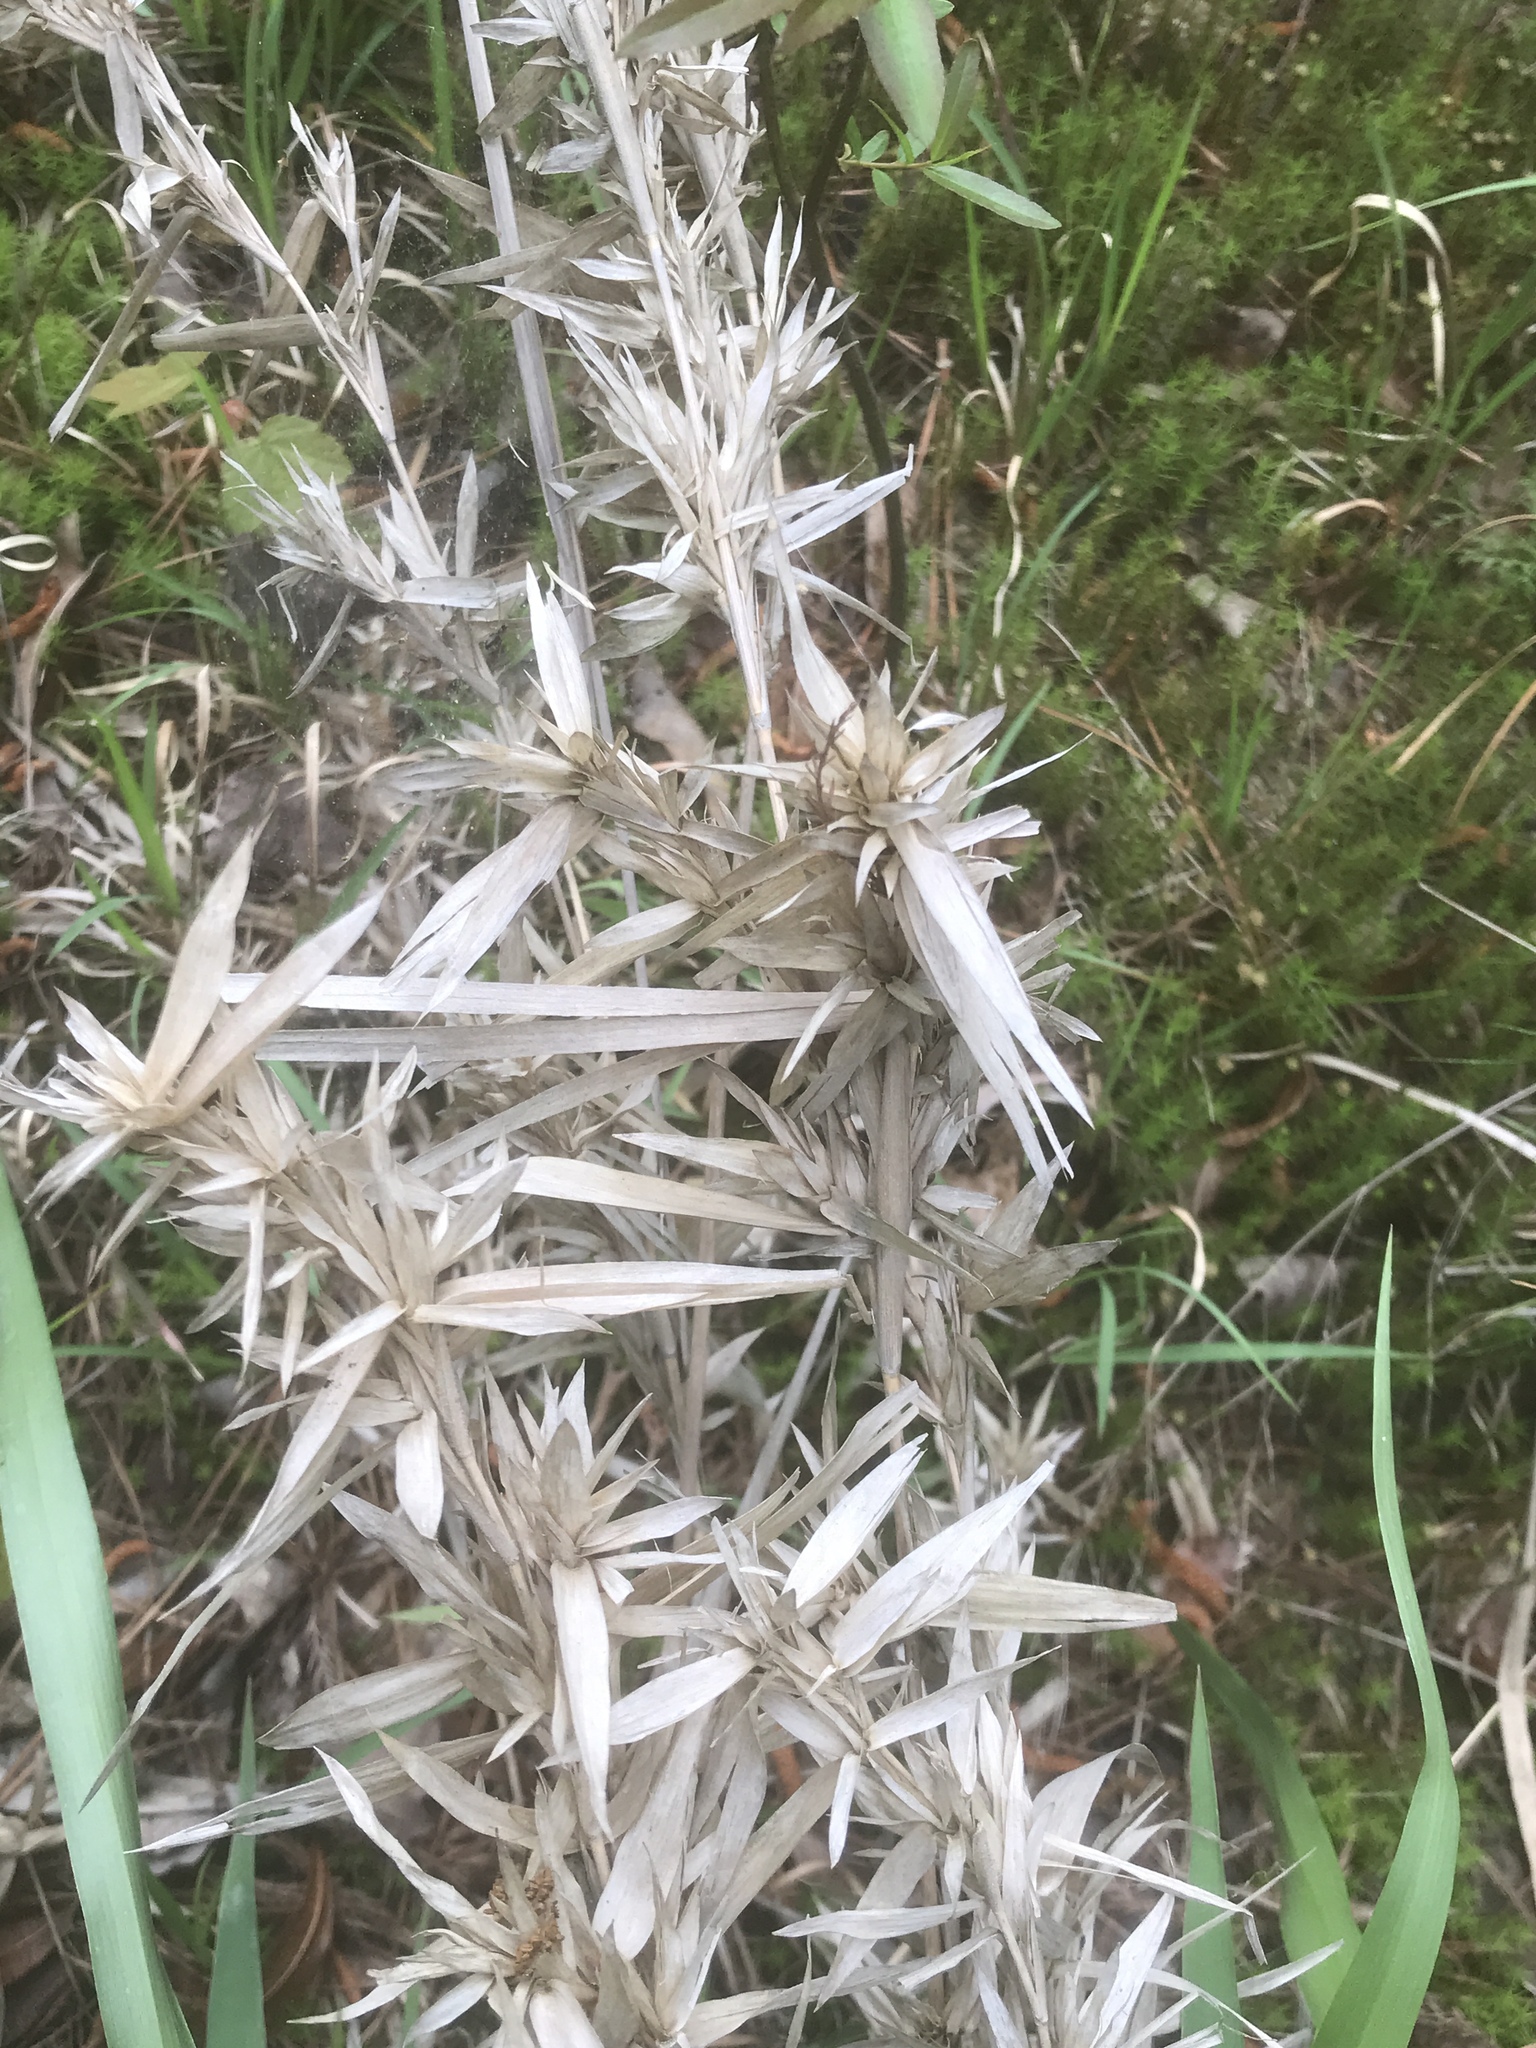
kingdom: Plantae
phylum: Tracheophyta
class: Liliopsida
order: Poales
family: Poaceae
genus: Dichanthelium
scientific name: Dichanthelium scabriusculum
